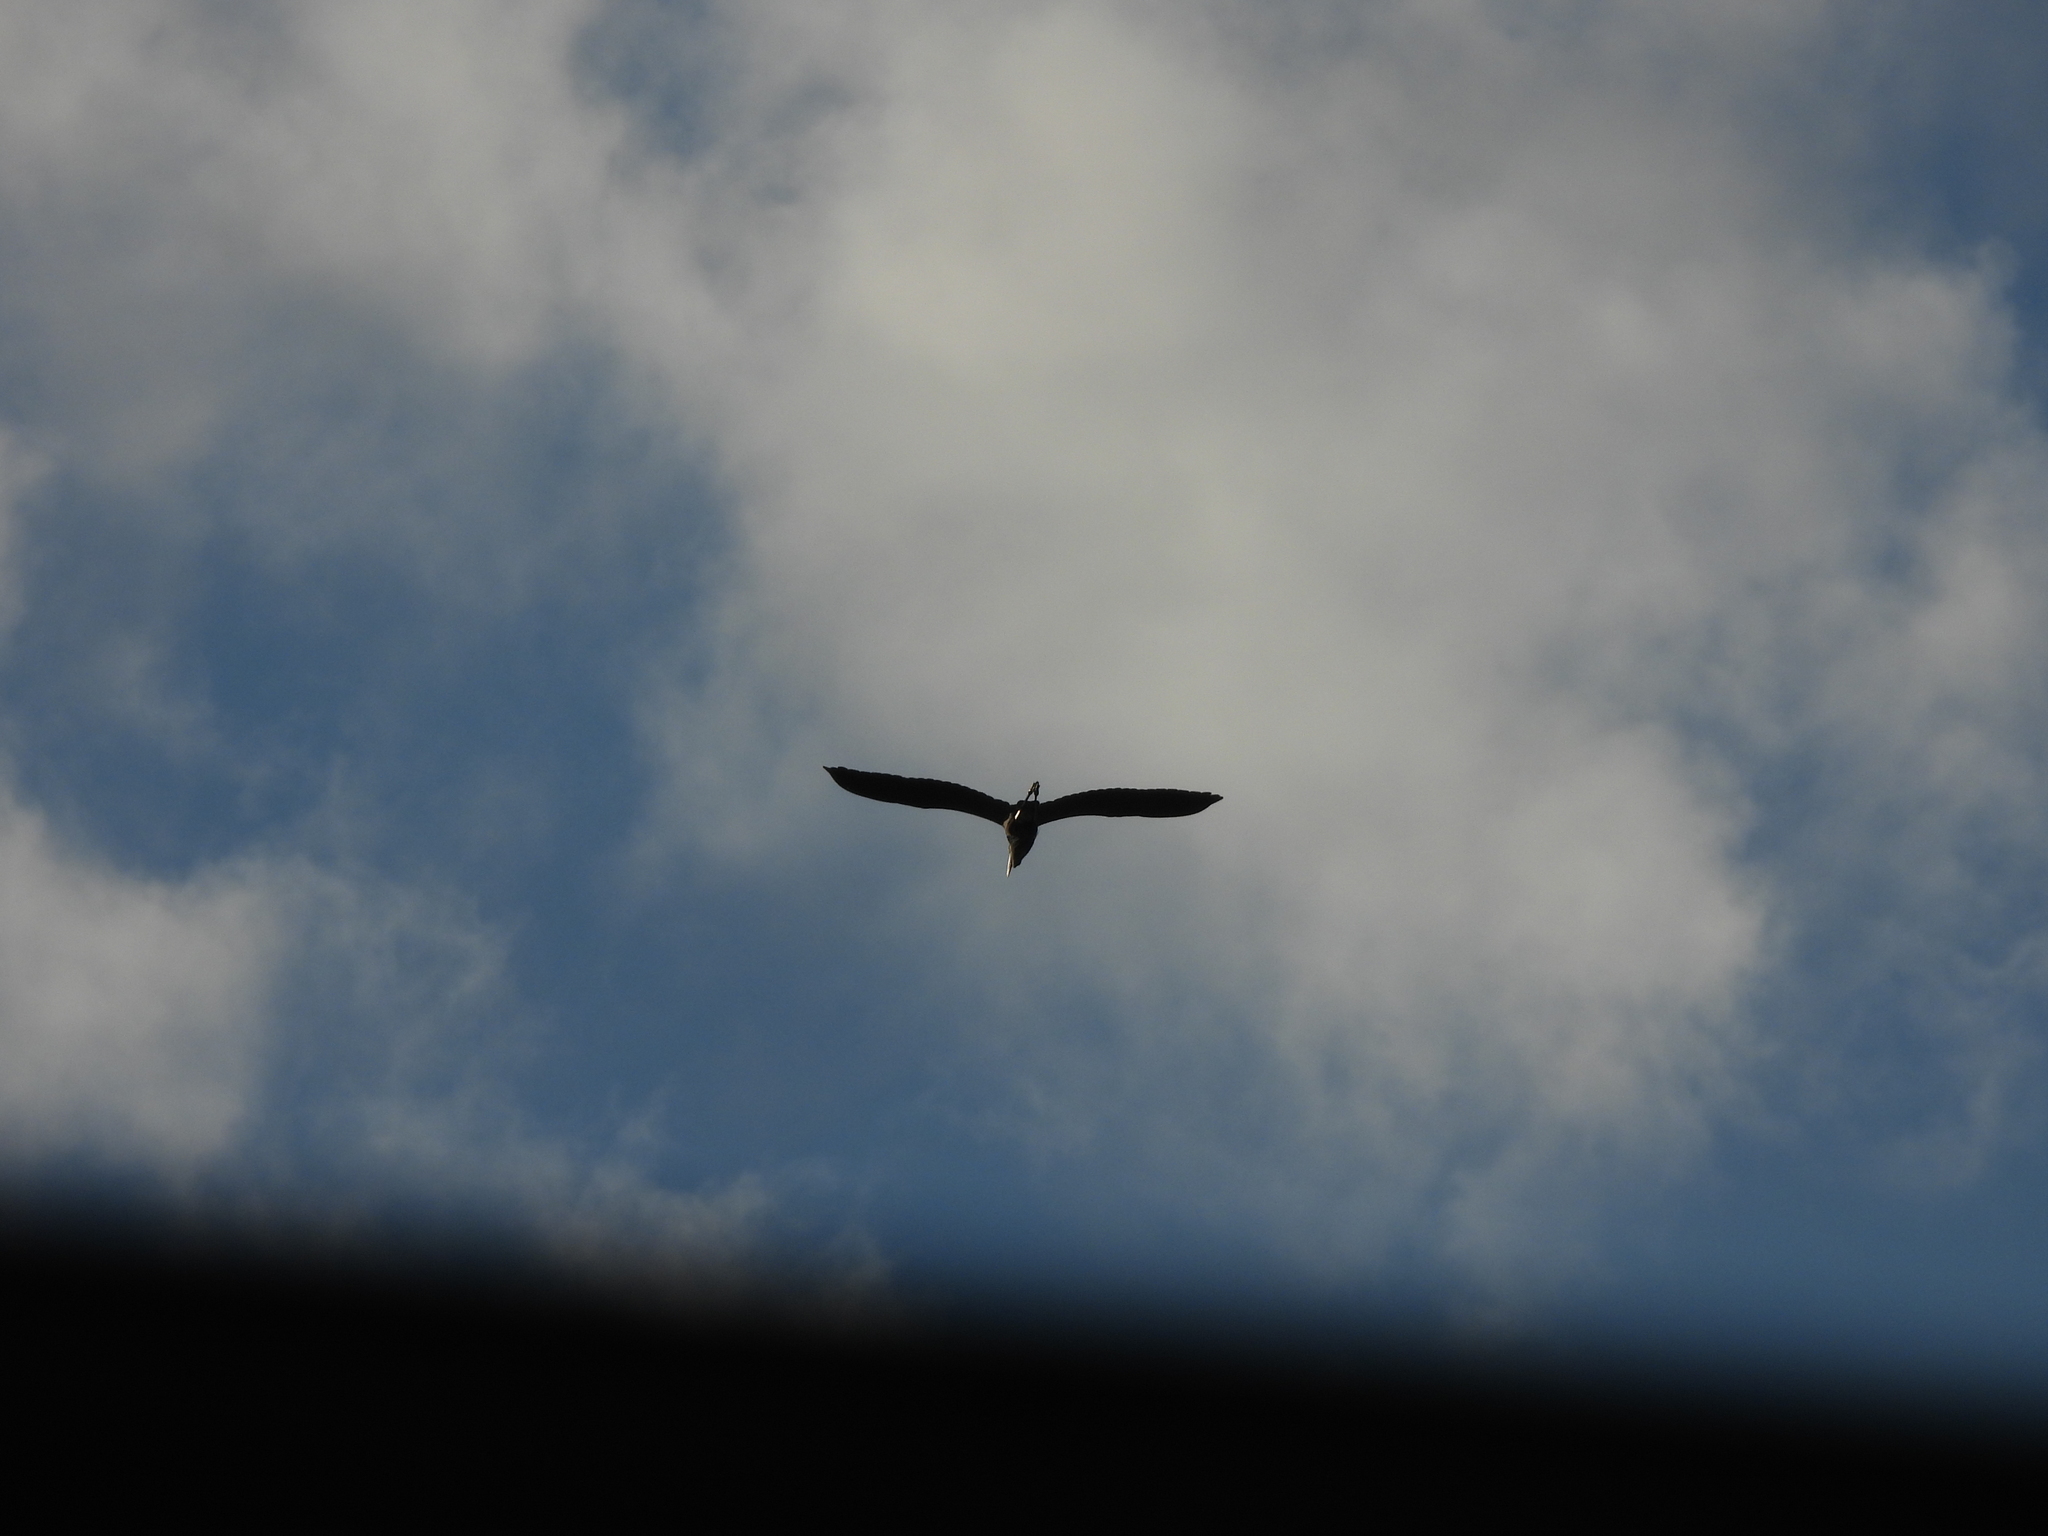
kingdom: Animalia
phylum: Chordata
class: Aves
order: Pelecaniformes
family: Ardeidae
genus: Ardea
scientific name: Ardea herodias
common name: Great blue heron
